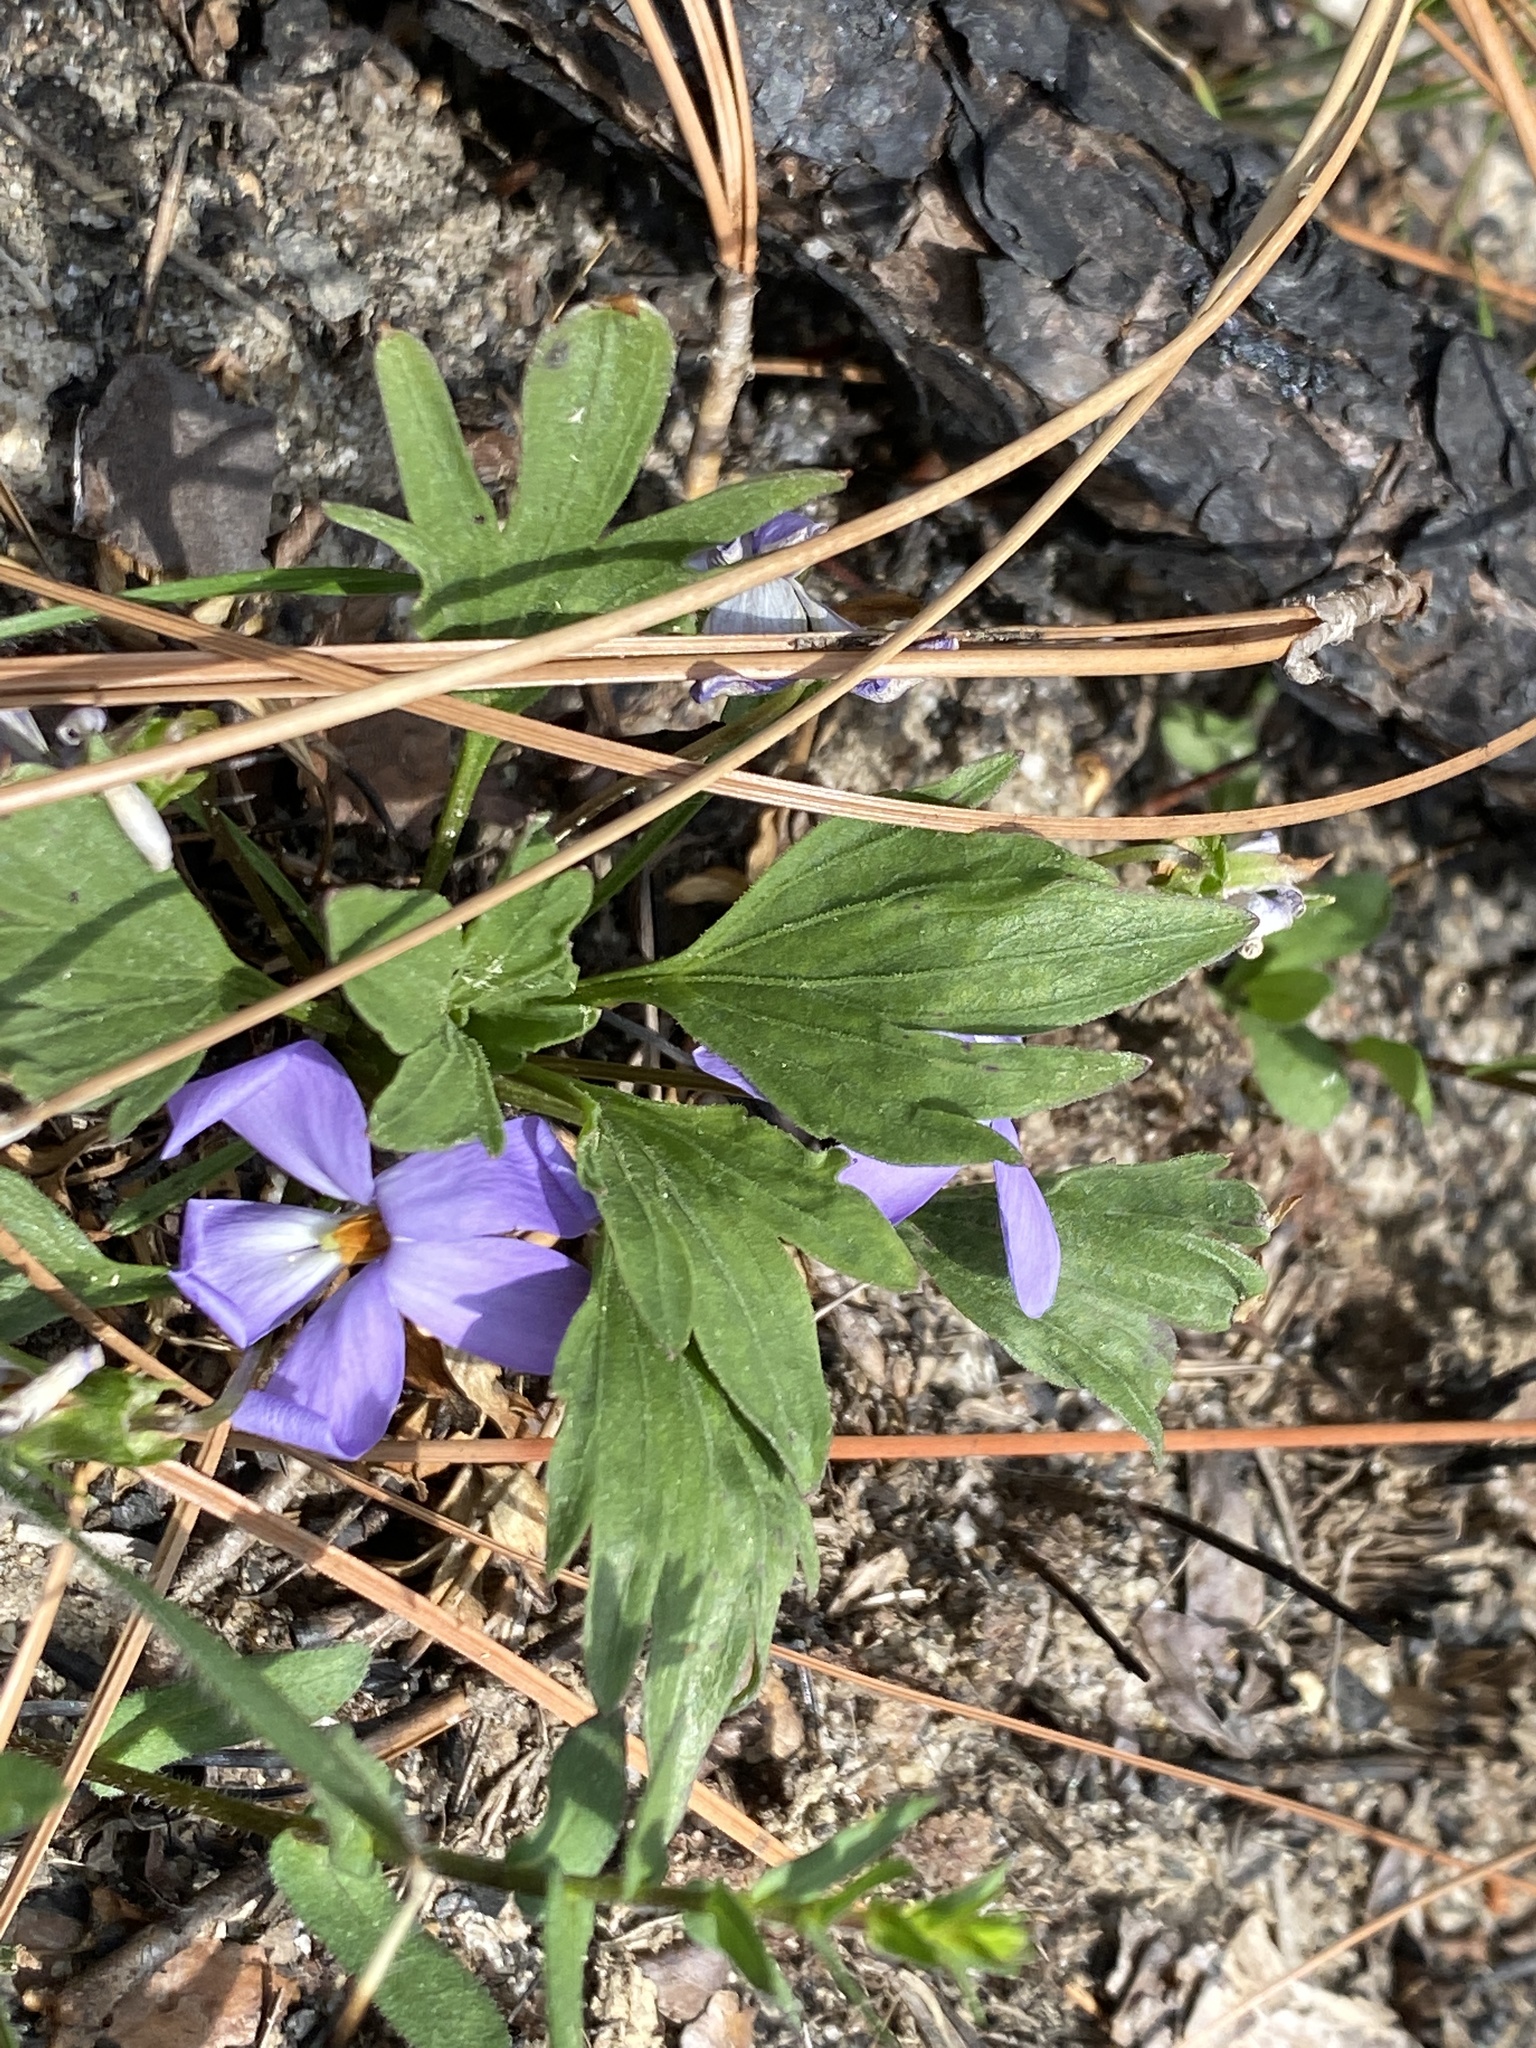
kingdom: Plantae
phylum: Tracheophyta
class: Magnoliopsida
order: Malpighiales
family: Violaceae
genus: Viola
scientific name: Viola pedata
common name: Pansy violet
